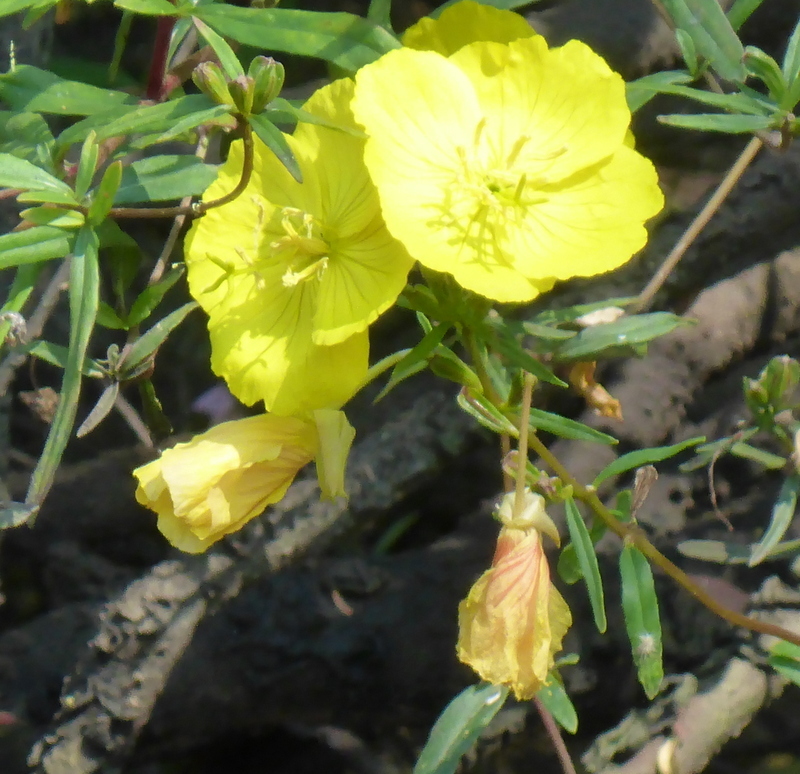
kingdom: Plantae
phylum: Tracheophyta
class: Magnoliopsida
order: Myrtales
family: Onagraceae
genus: Oenothera
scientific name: Oenothera fruticosa
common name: Southern sundrops
